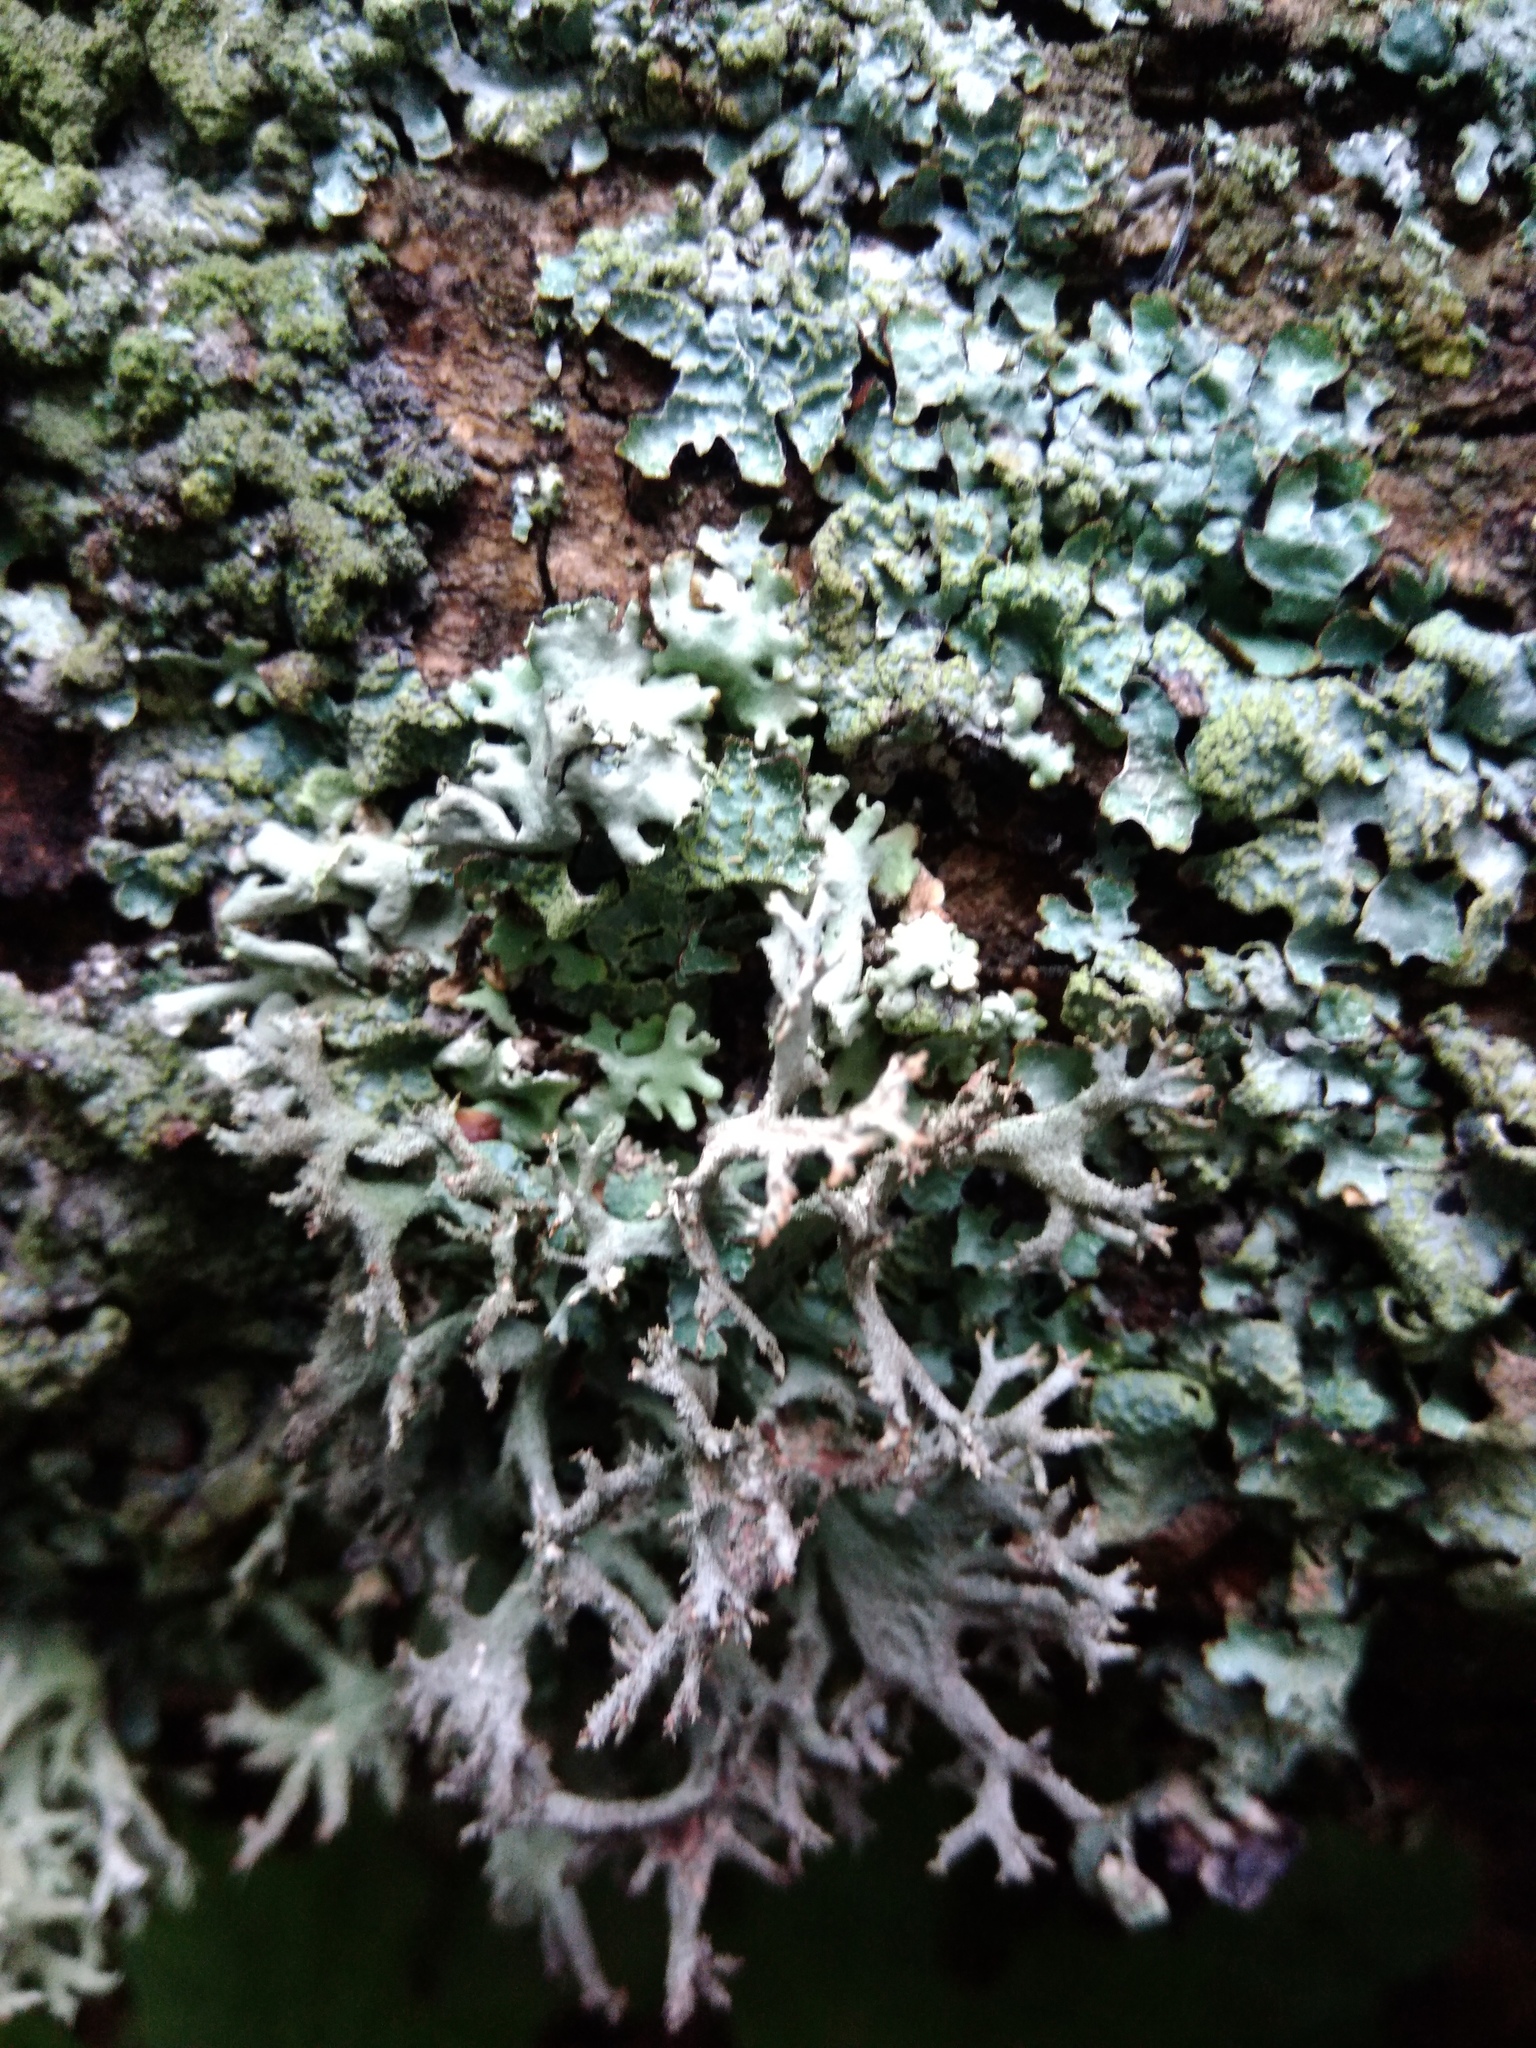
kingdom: Fungi
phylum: Ascomycota
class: Lecanoromycetes
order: Lecanorales
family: Parmeliaceae
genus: Pseudevernia
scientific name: Pseudevernia furfuracea
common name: Tree moss
